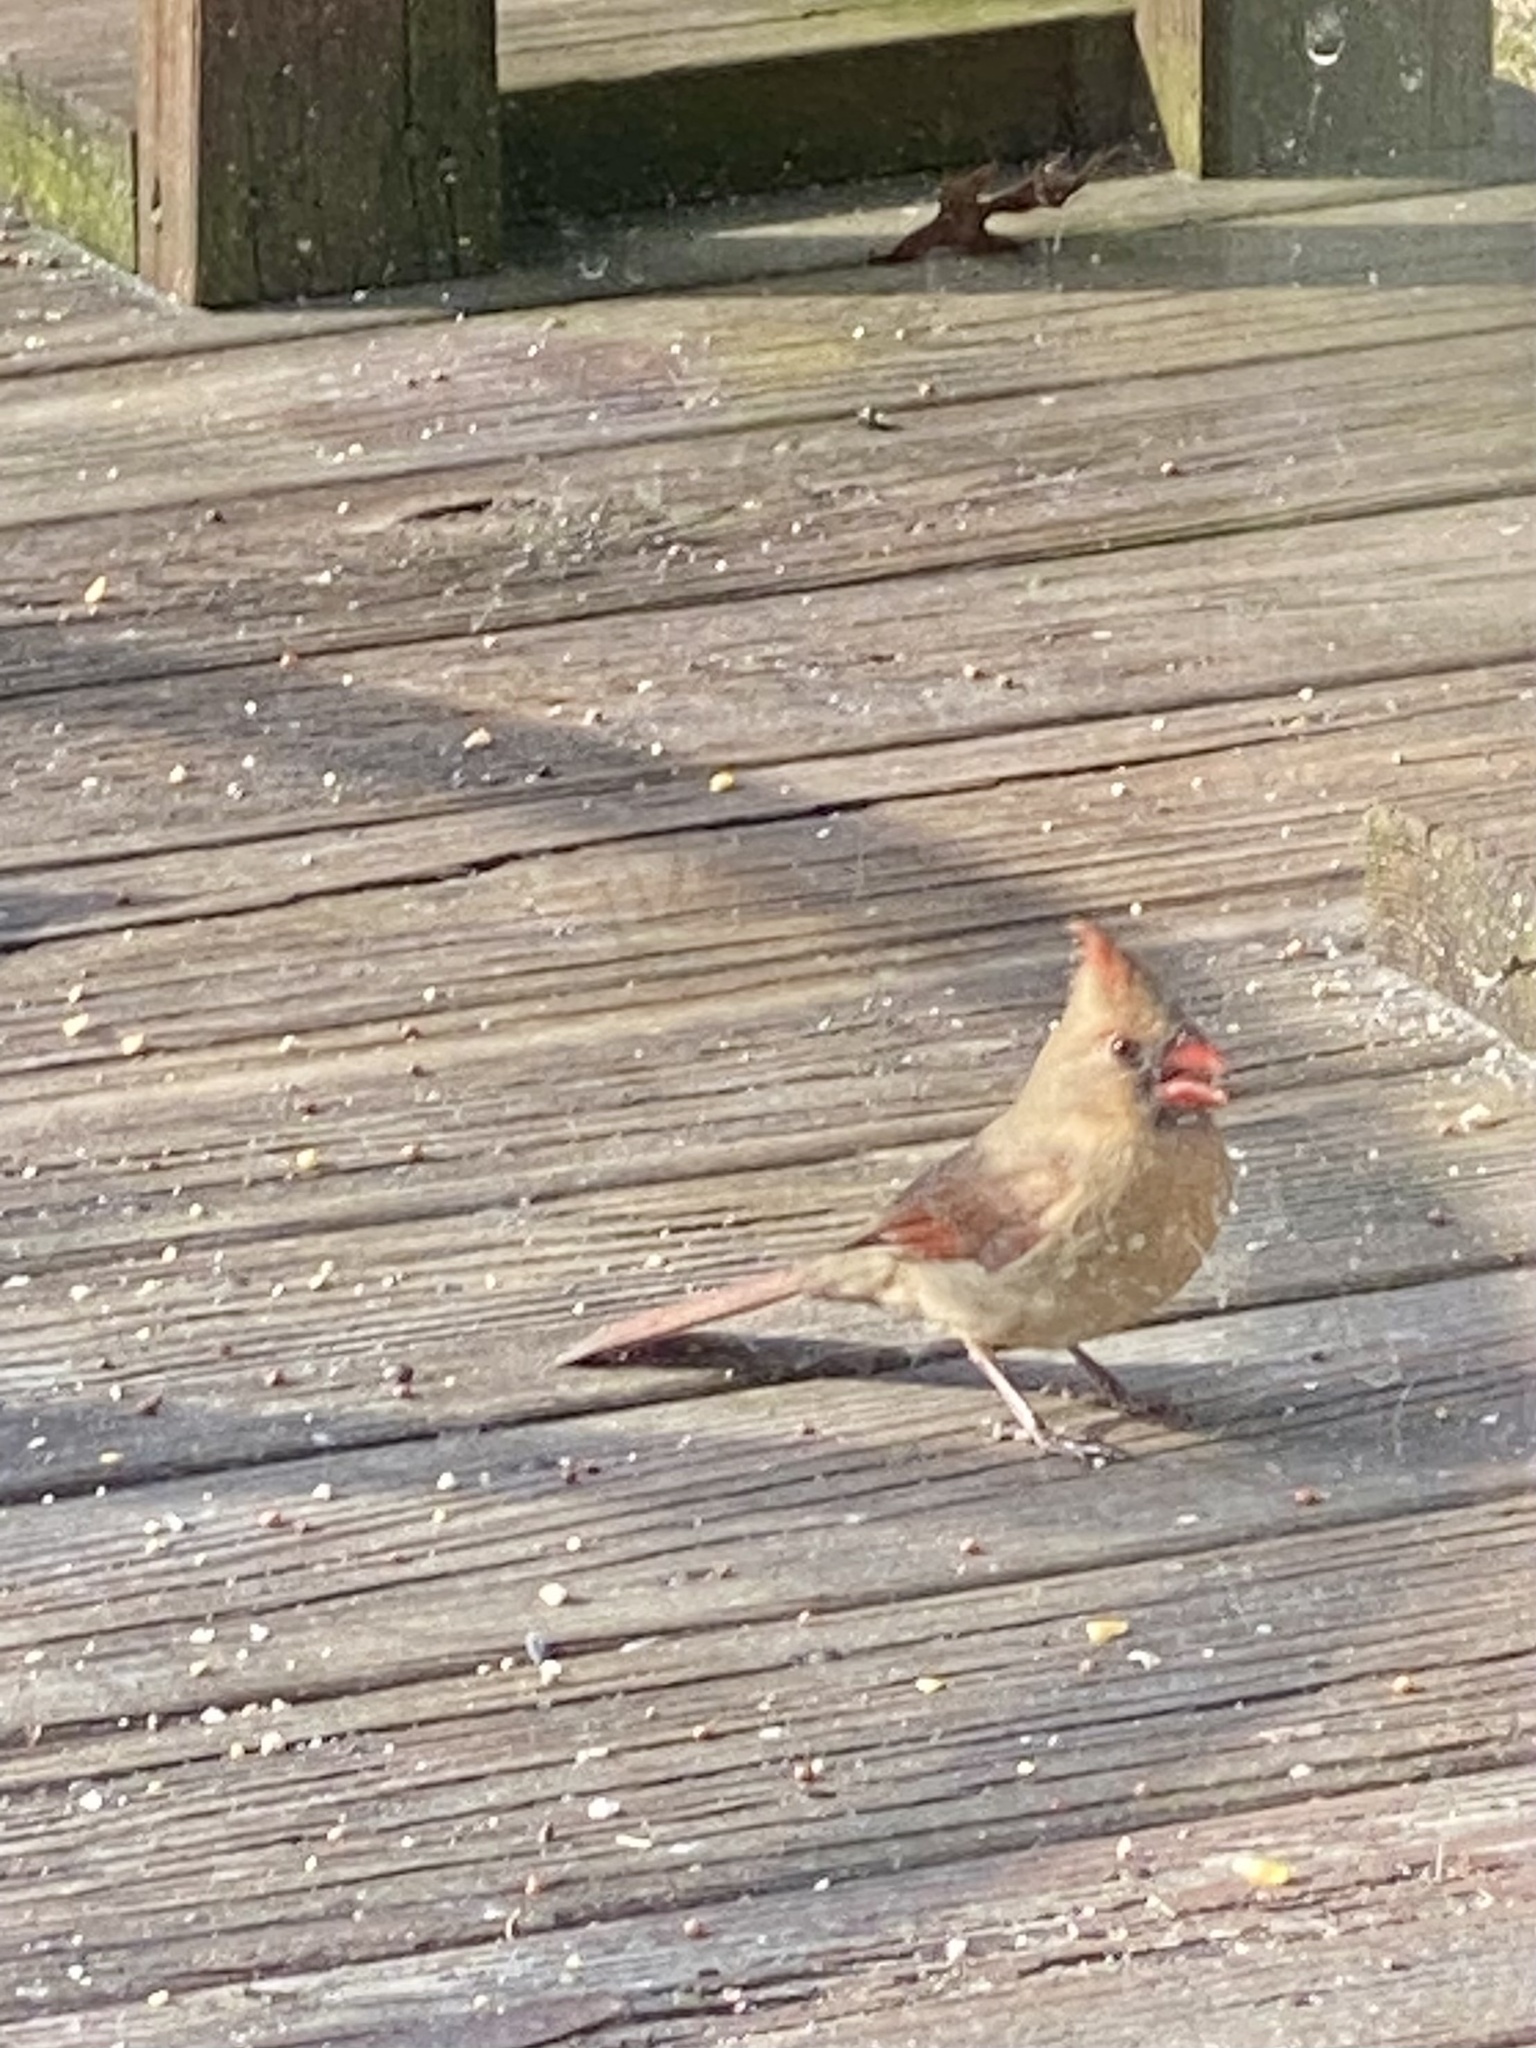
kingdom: Animalia
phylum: Chordata
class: Aves
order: Passeriformes
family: Cardinalidae
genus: Cardinalis
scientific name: Cardinalis cardinalis
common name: Northern cardinal
